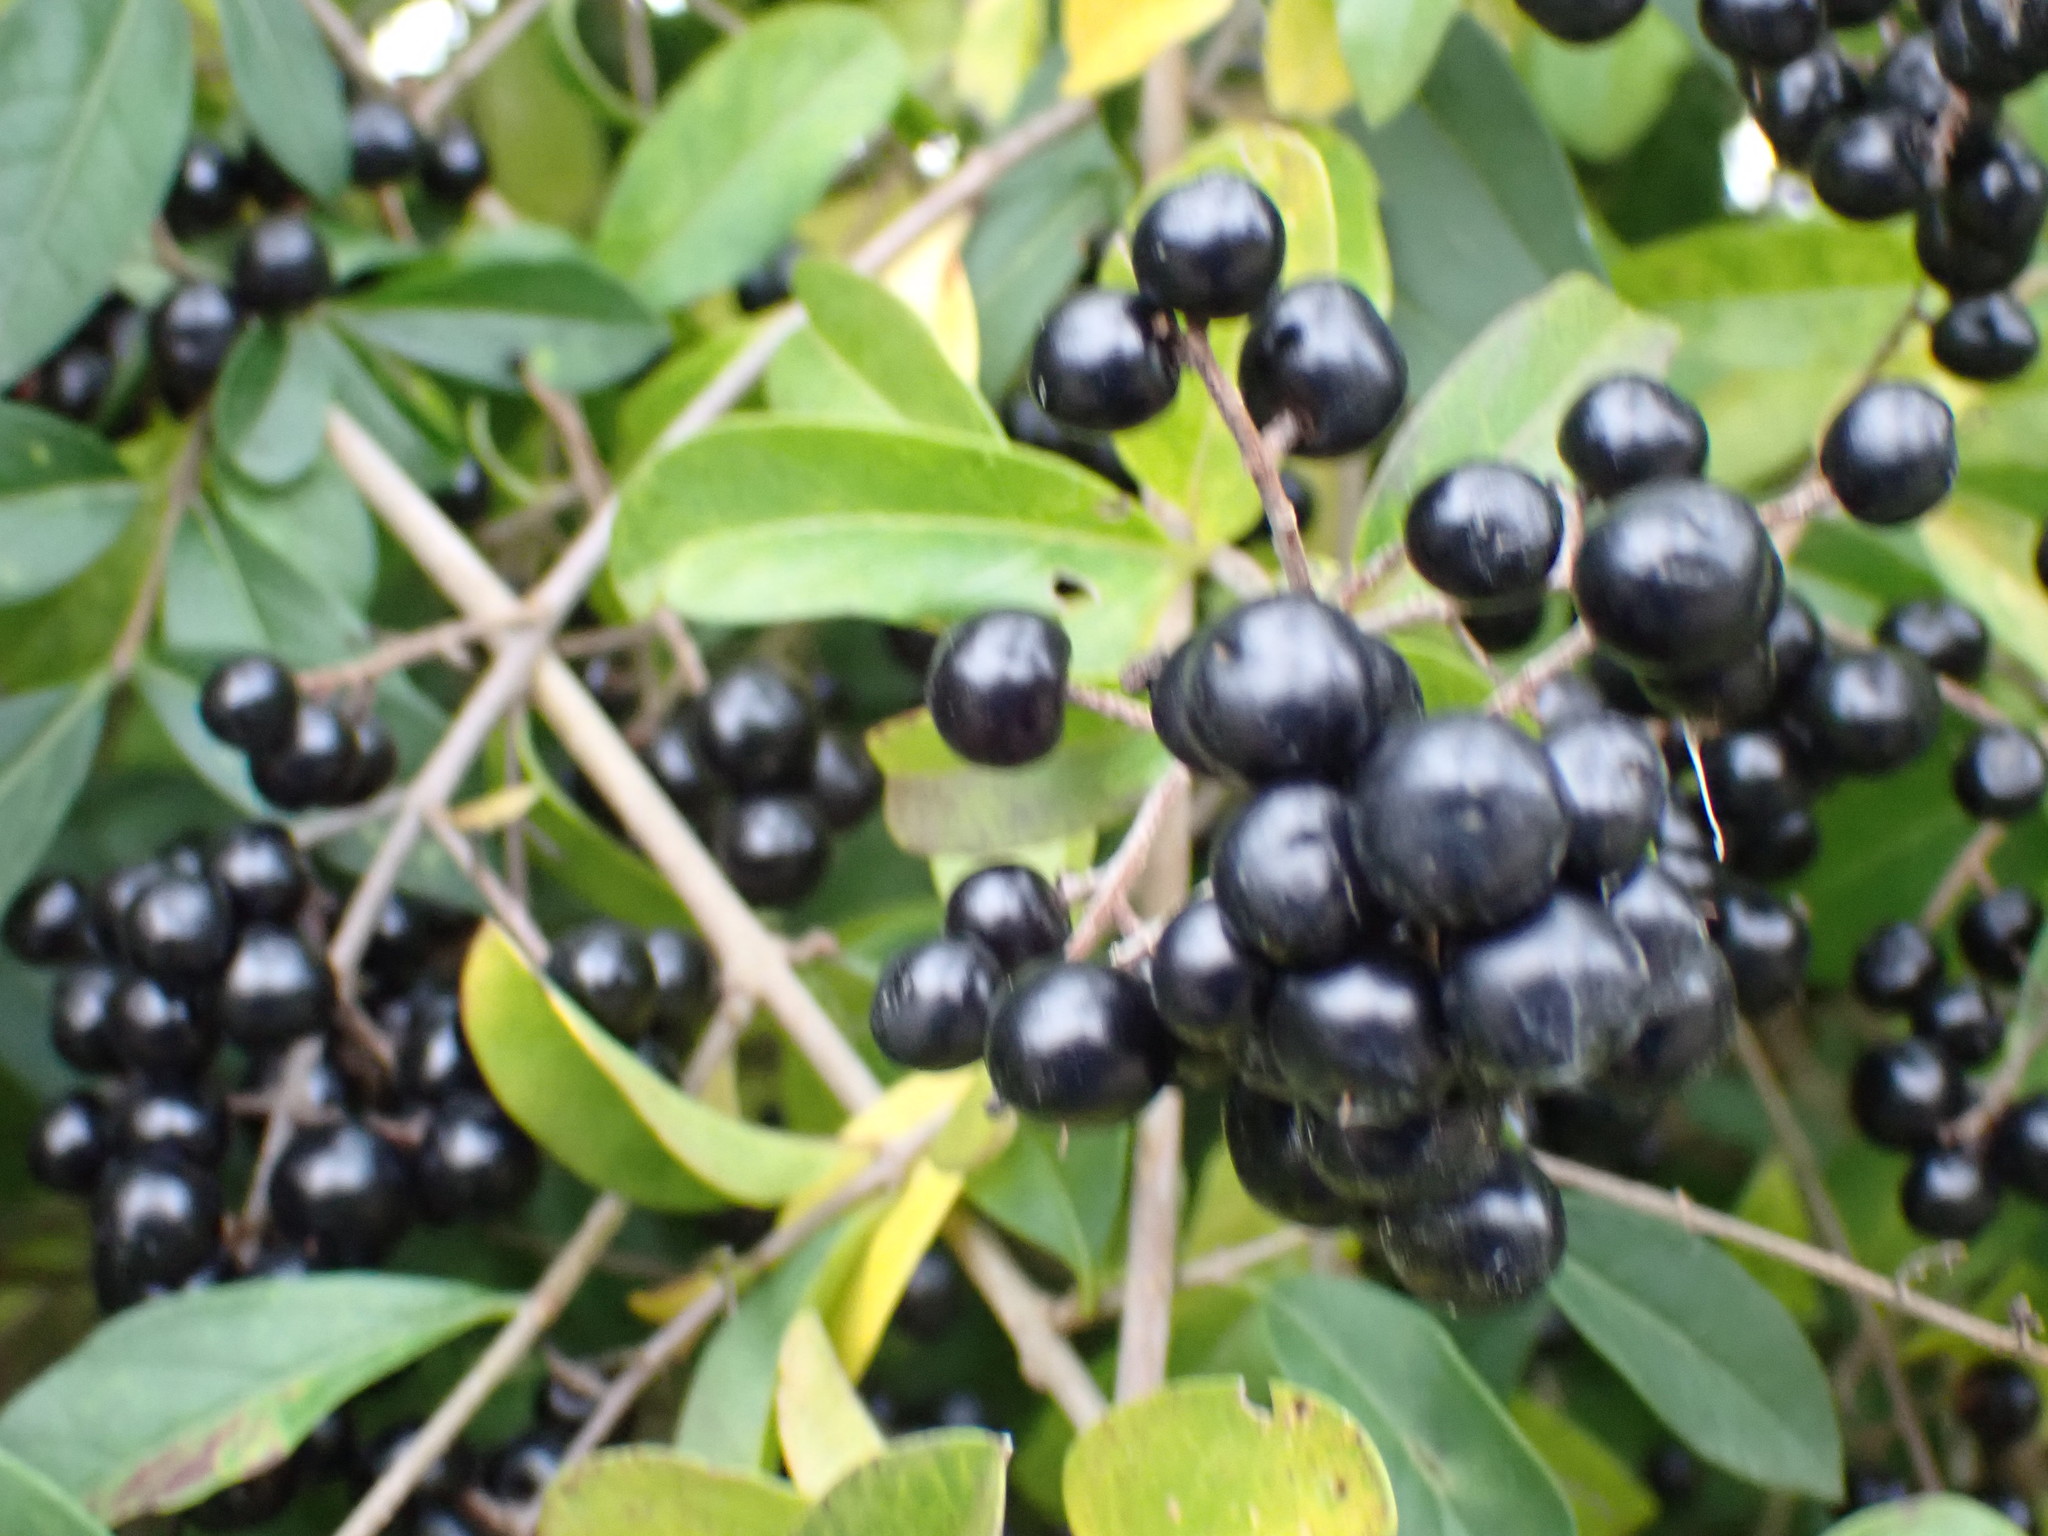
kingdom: Plantae
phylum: Tracheophyta
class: Magnoliopsida
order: Lamiales
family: Oleaceae
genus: Ligustrum
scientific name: Ligustrum vulgare
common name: Wild privet
